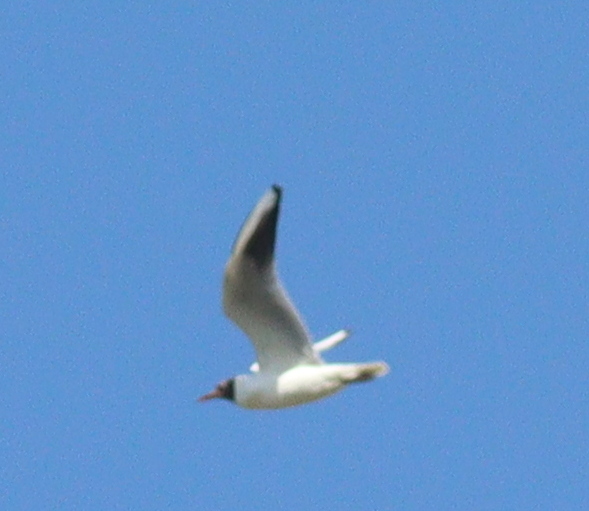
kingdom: Animalia
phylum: Chordata
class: Aves
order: Charadriiformes
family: Laridae
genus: Chroicocephalus
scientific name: Chroicocephalus ridibundus
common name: Black-headed gull
